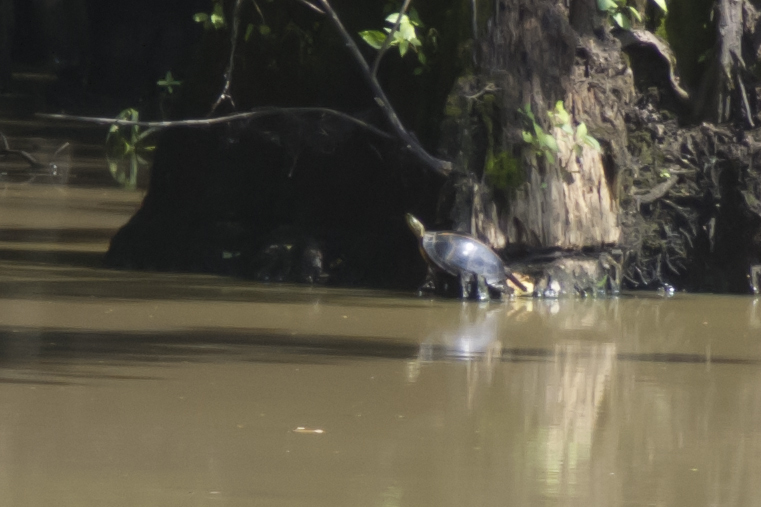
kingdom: Animalia
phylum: Chordata
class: Testudines
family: Emydidae
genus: Chrysemys
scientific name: Chrysemys dorsalis
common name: Southern painted turtle
